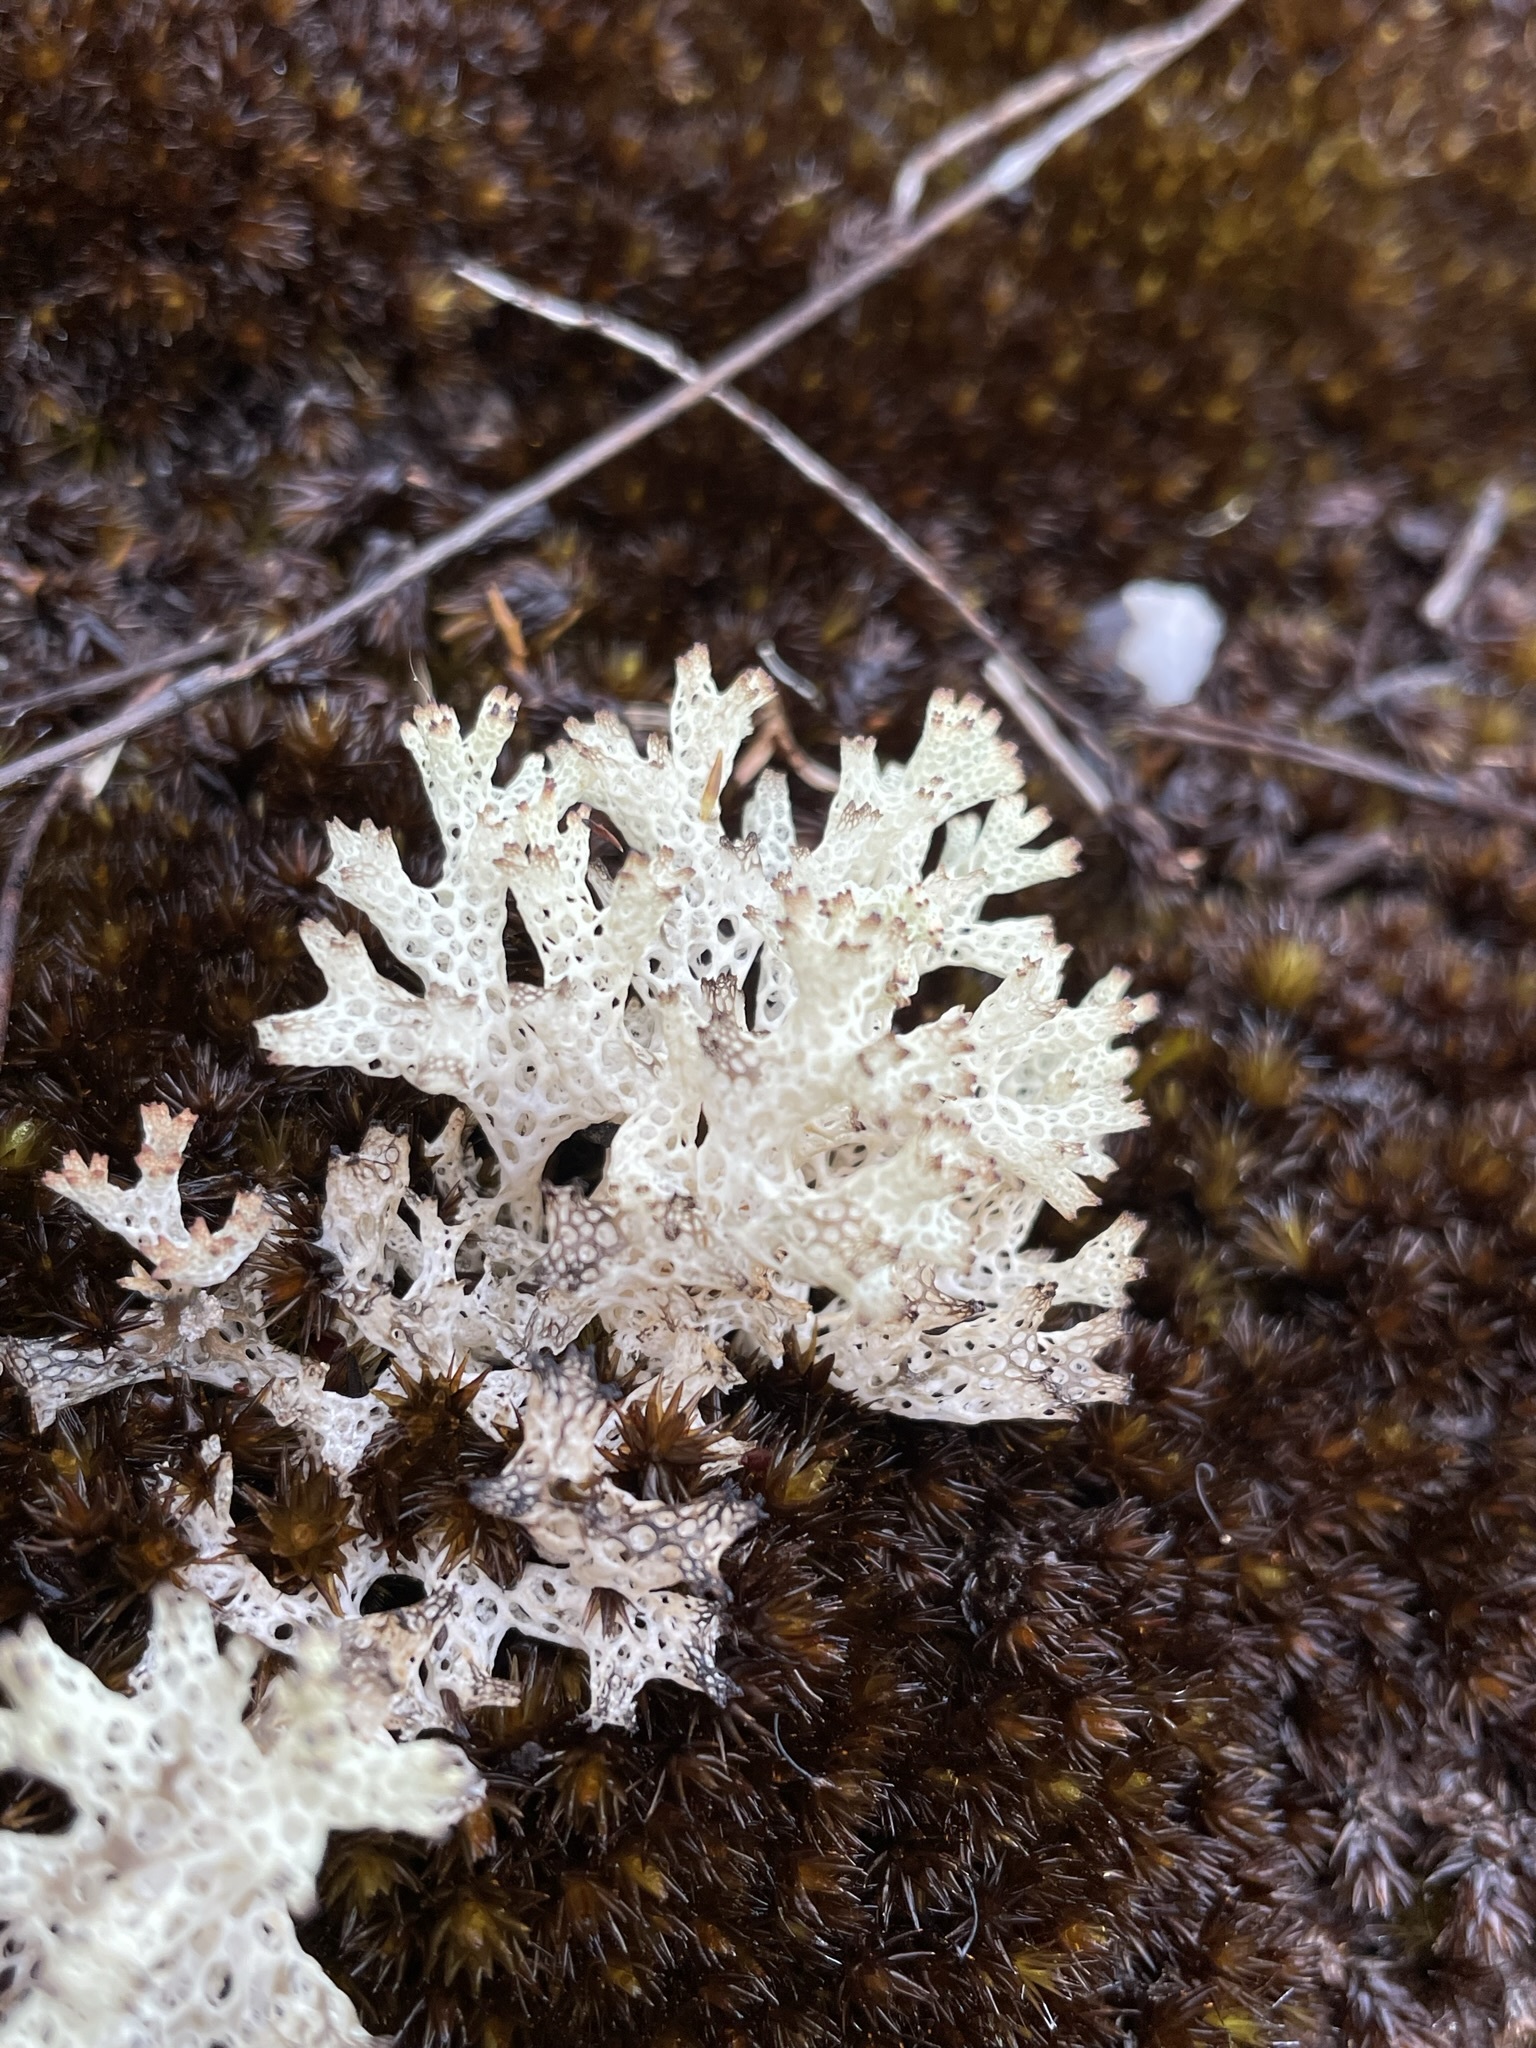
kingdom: Fungi
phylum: Ascomycota
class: Lecanoromycetes
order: Lecanorales
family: Cladoniaceae
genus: Pulchrocladia
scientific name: Pulchrocladia retipora
